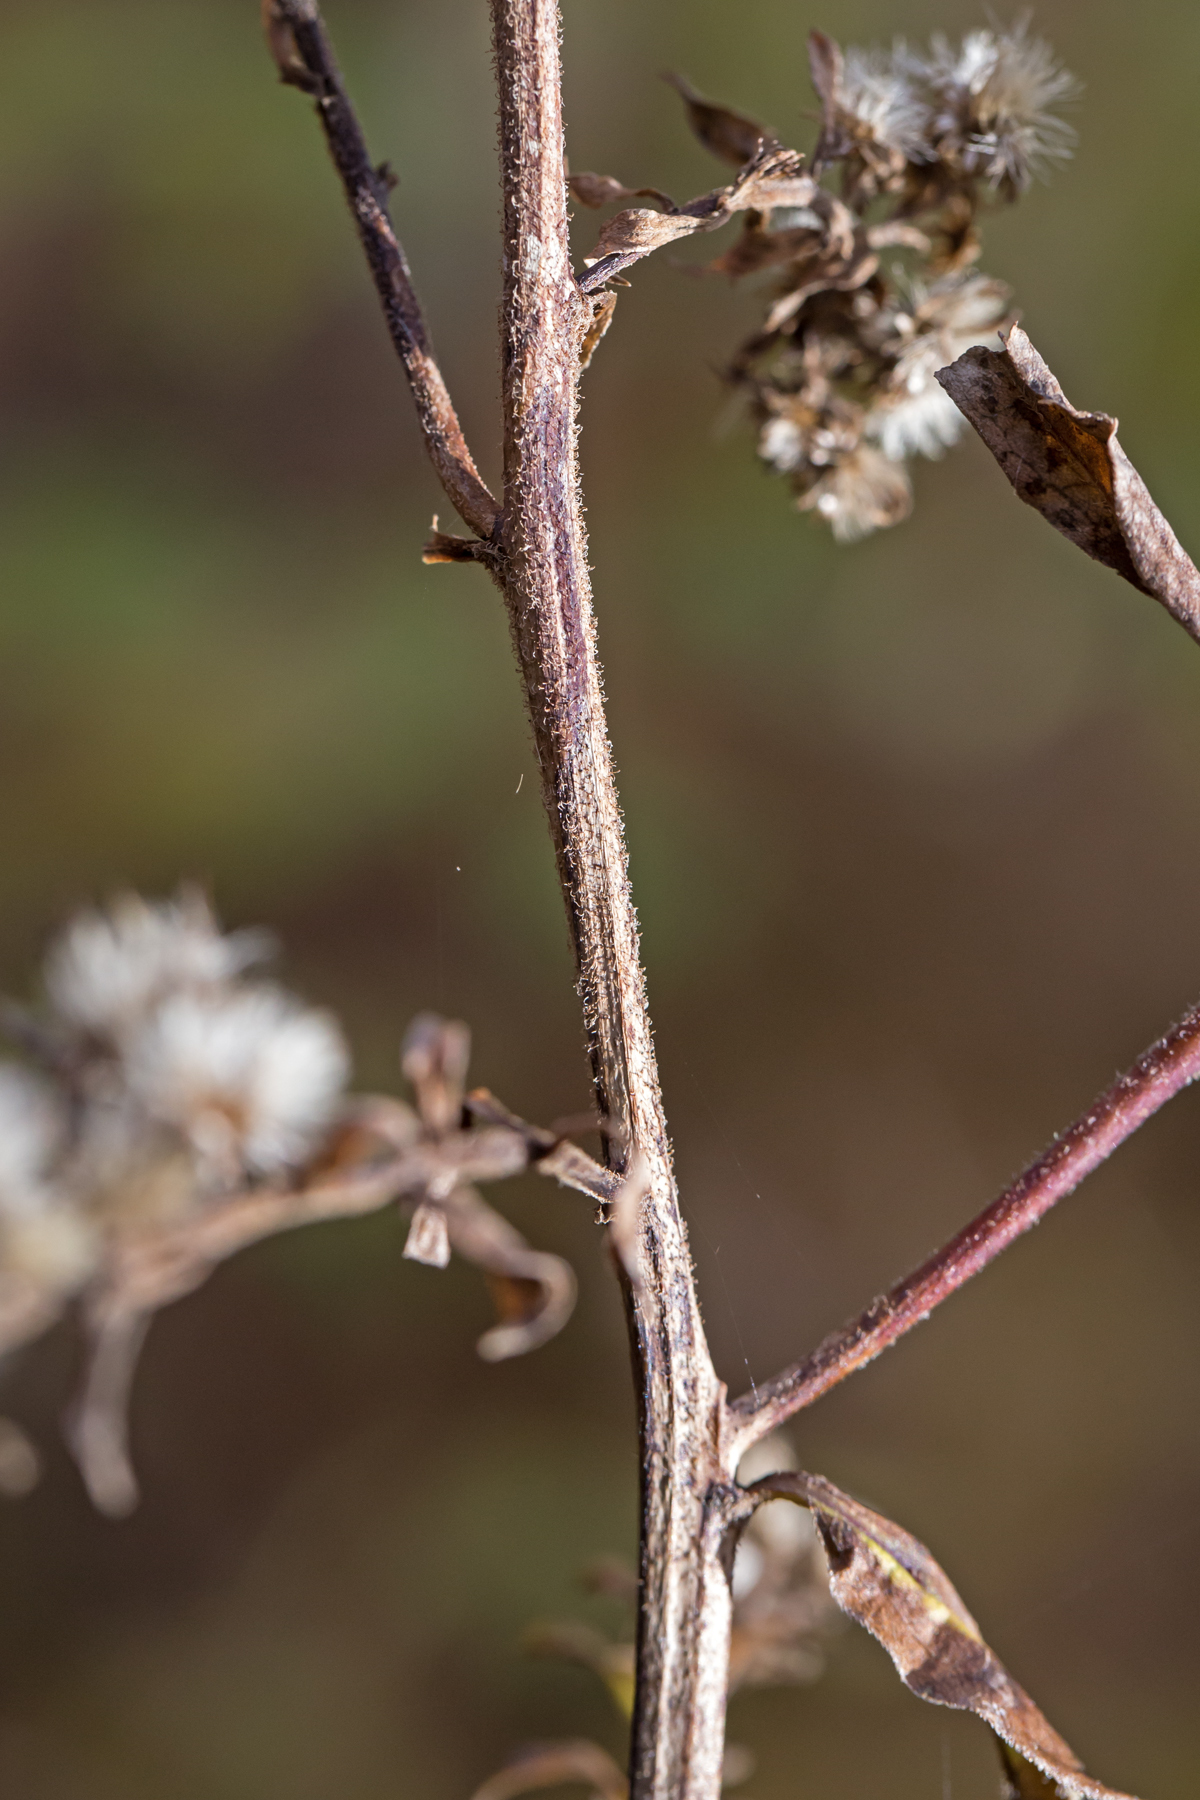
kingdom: Plantae
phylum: Tracheophyta
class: Magnoliopsida
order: Asterales
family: Asteraceae
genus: Solidago
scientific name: Solidago gigantea
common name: Giant goldenrod
